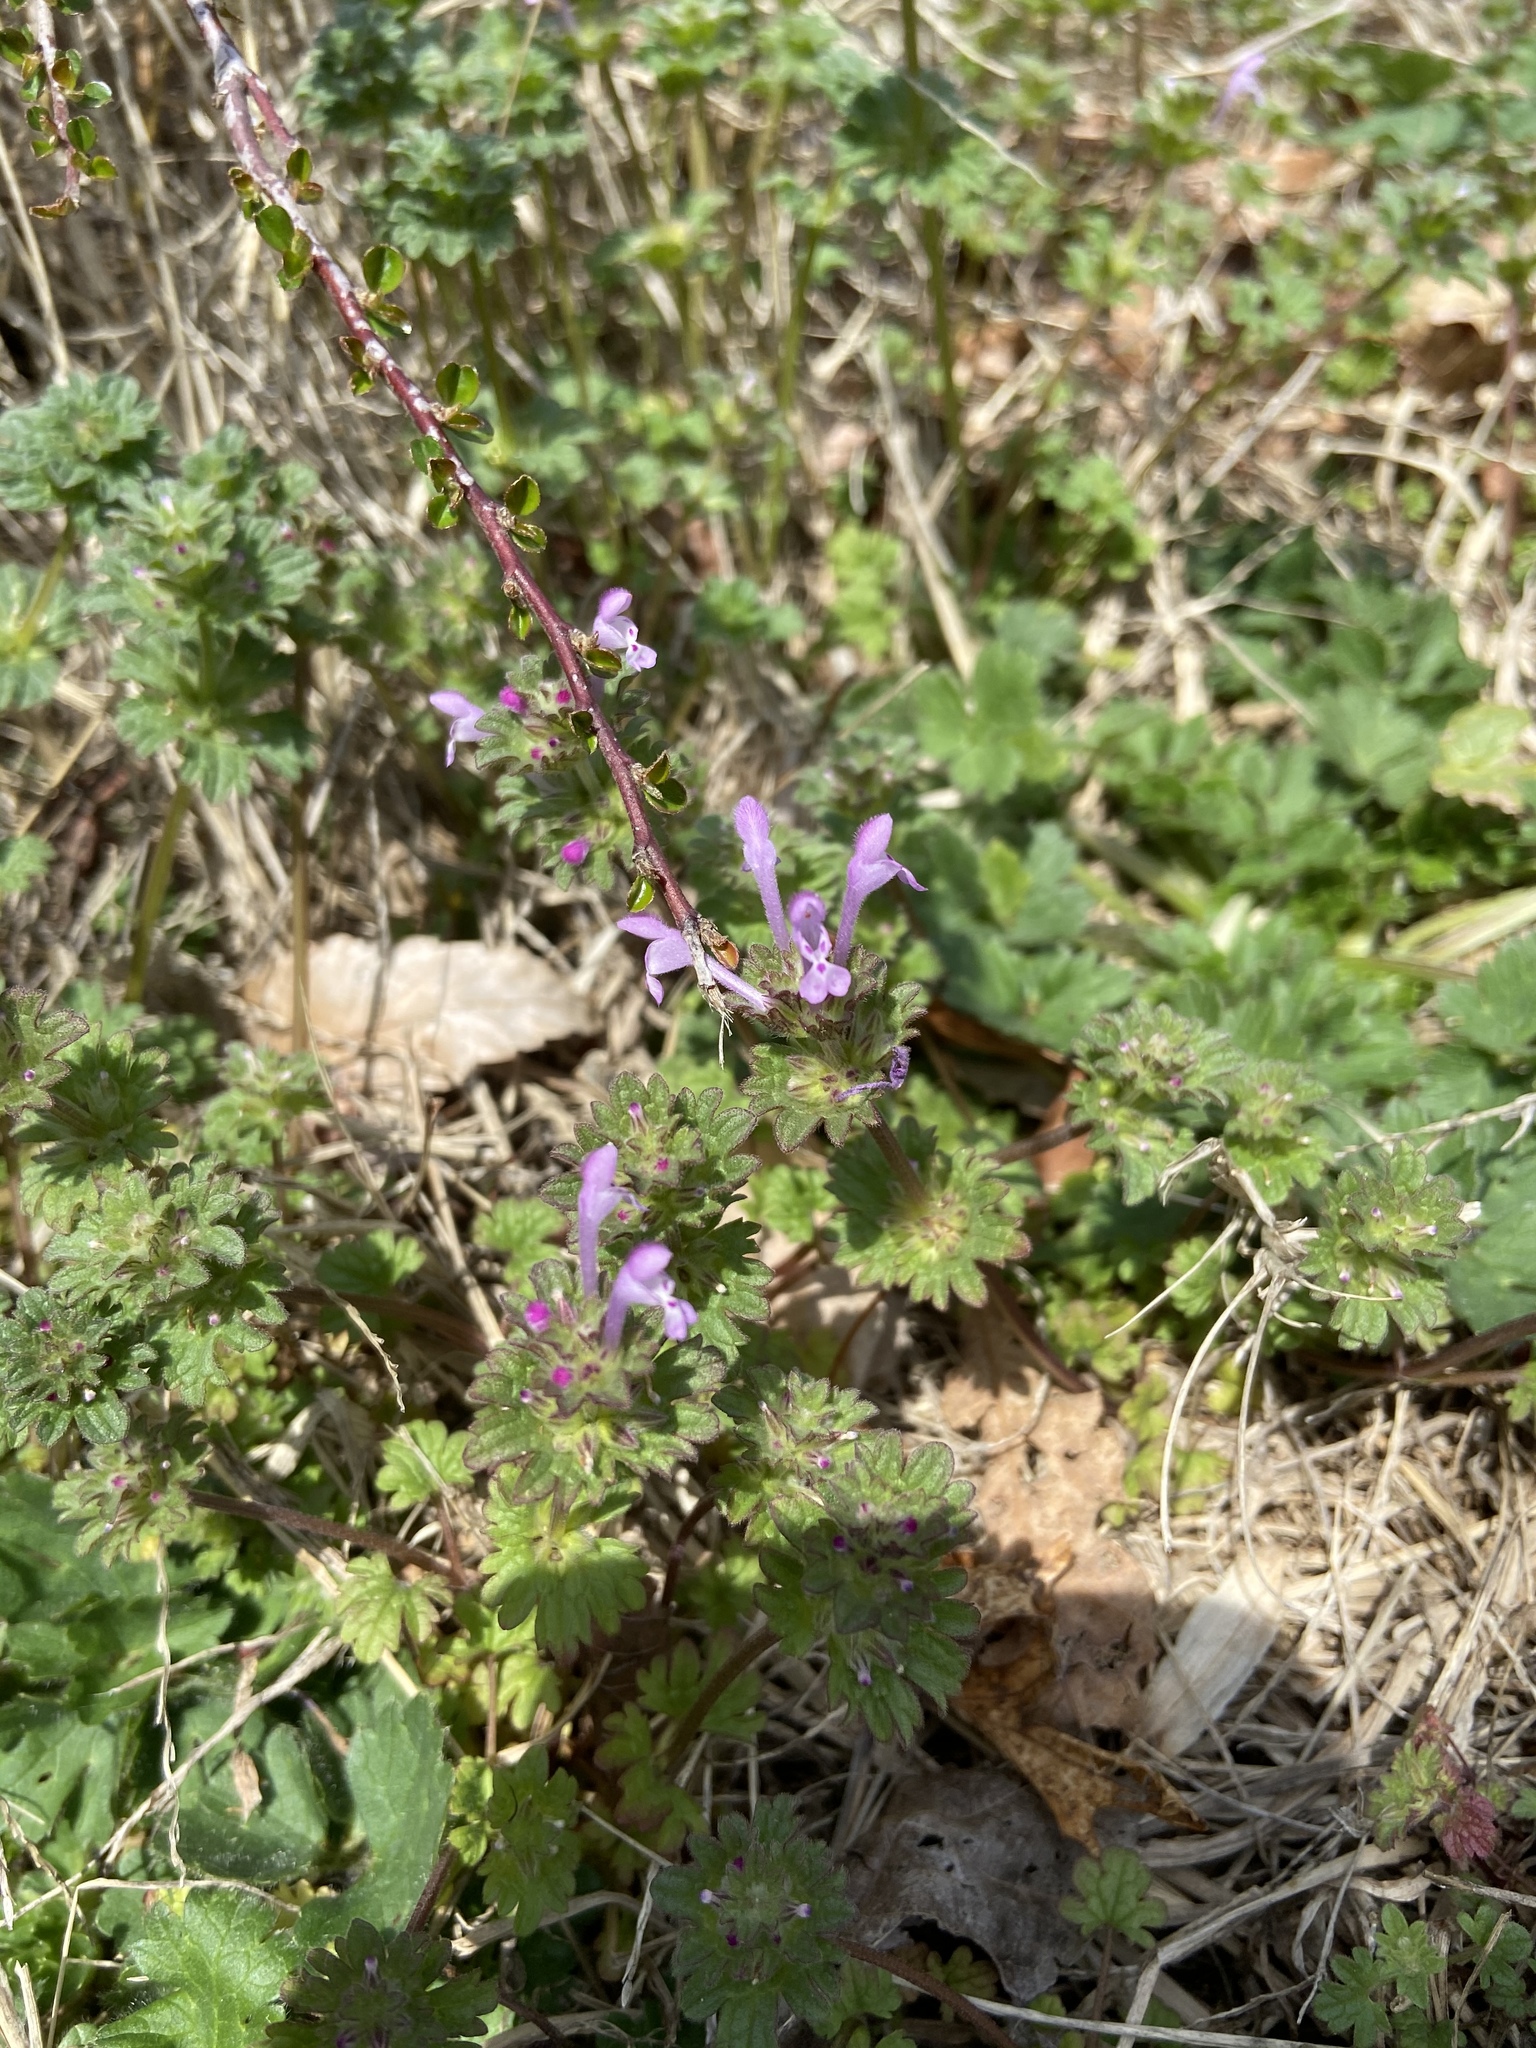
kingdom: Plantae
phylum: Tracheophyta
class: Magnoliopsida
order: Lamiales
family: Lamiaceae
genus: Lamium
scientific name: Lamium amplexicaule
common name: Henbit dead-nettle
